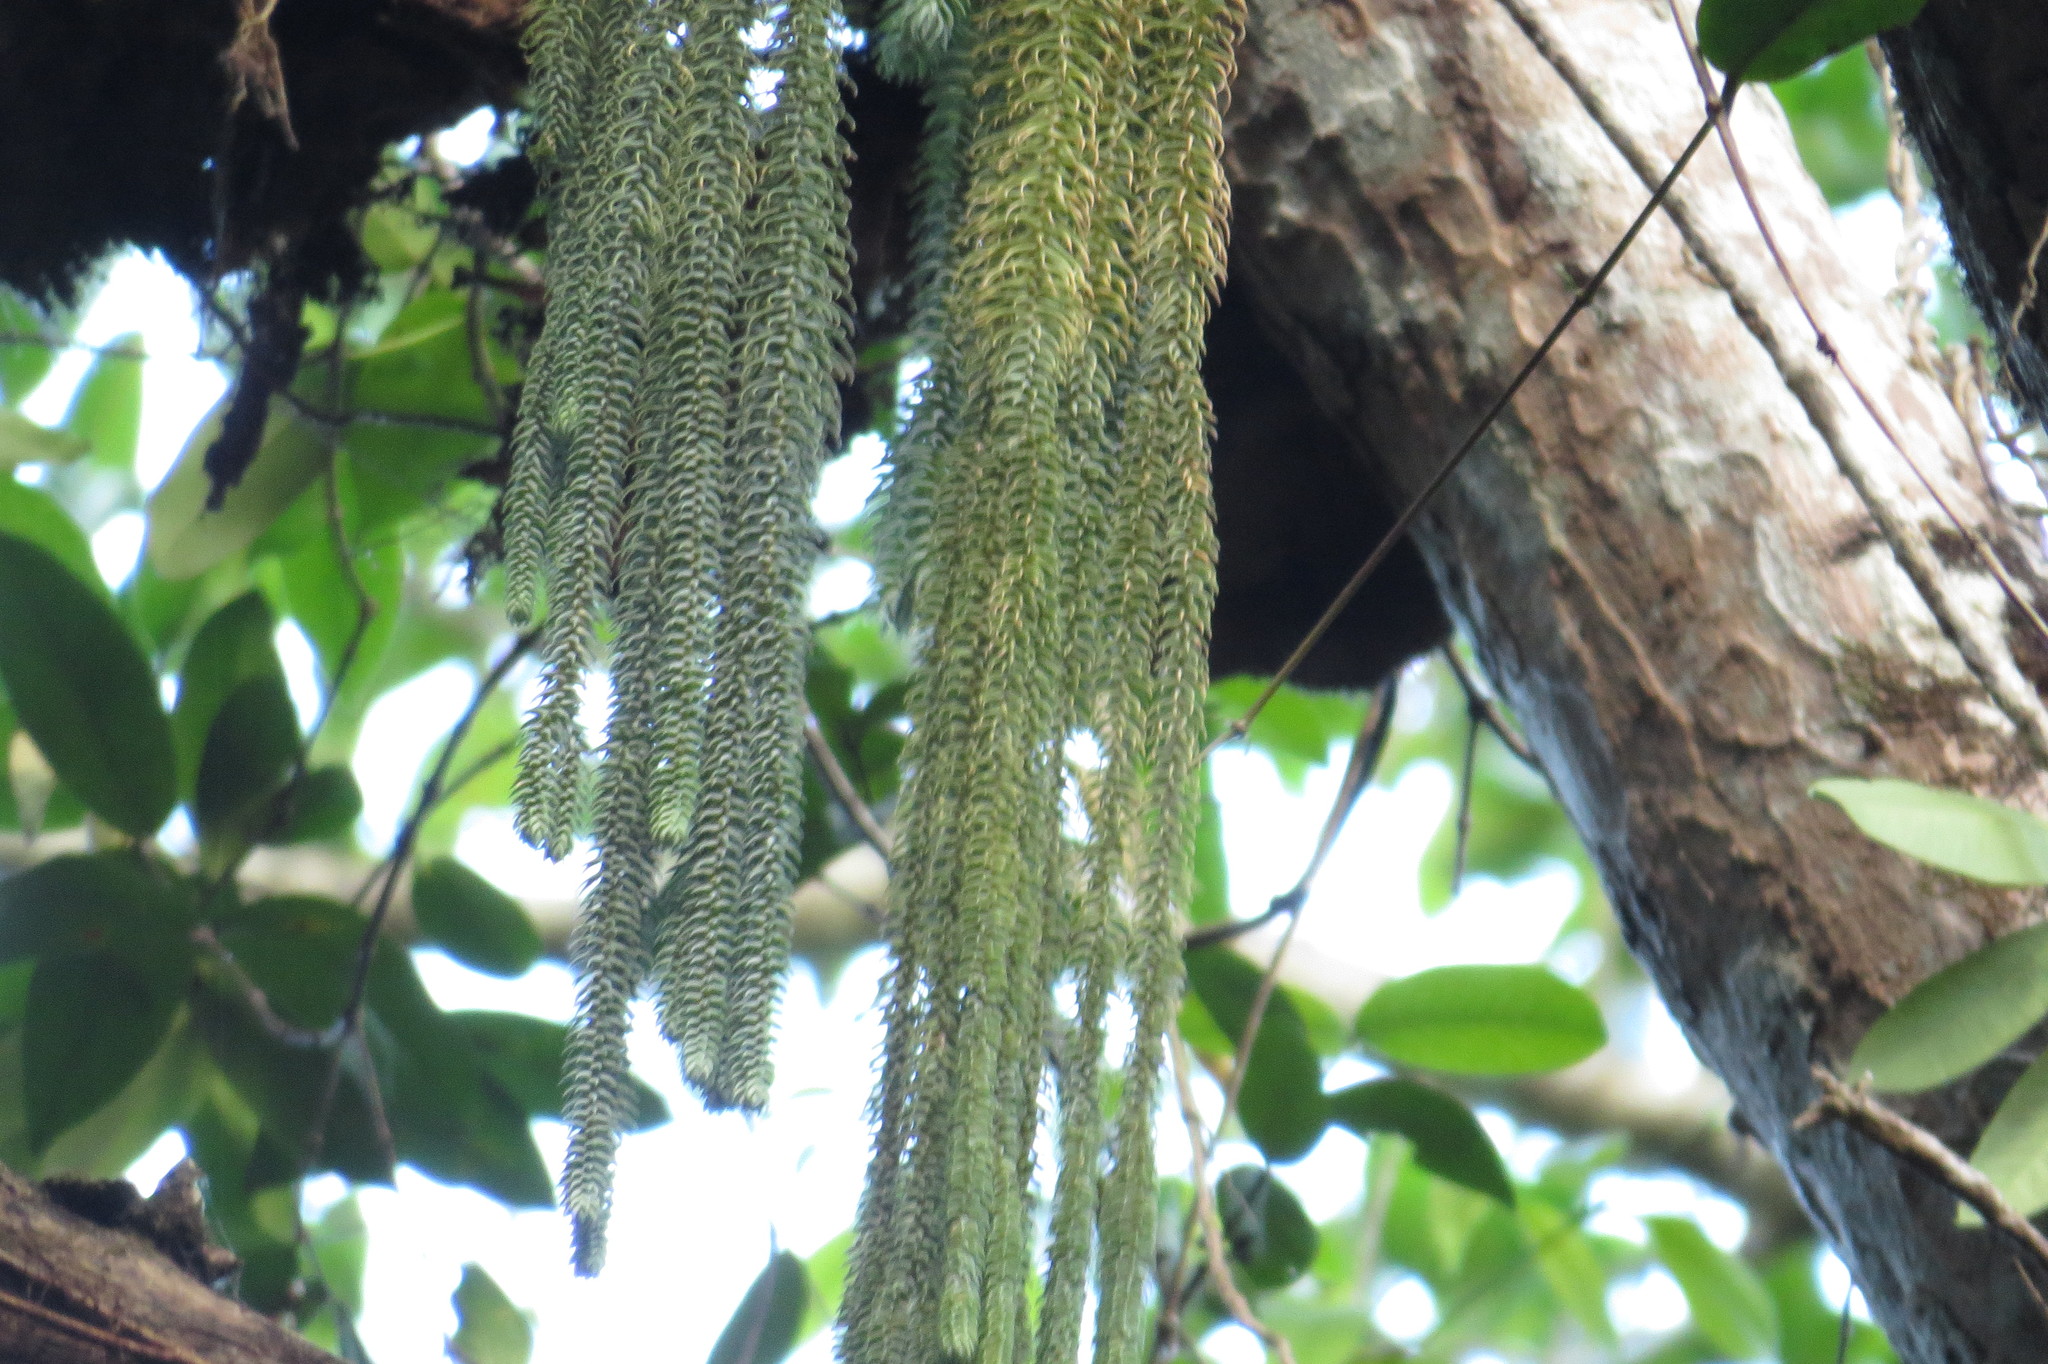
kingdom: Plantae
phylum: Tracheophyta
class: Lycopodiopsida
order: Lycopodiales
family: Lycopodiaceae
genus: Phlegmariurus
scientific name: Phlegmariurus dalhousieanus
